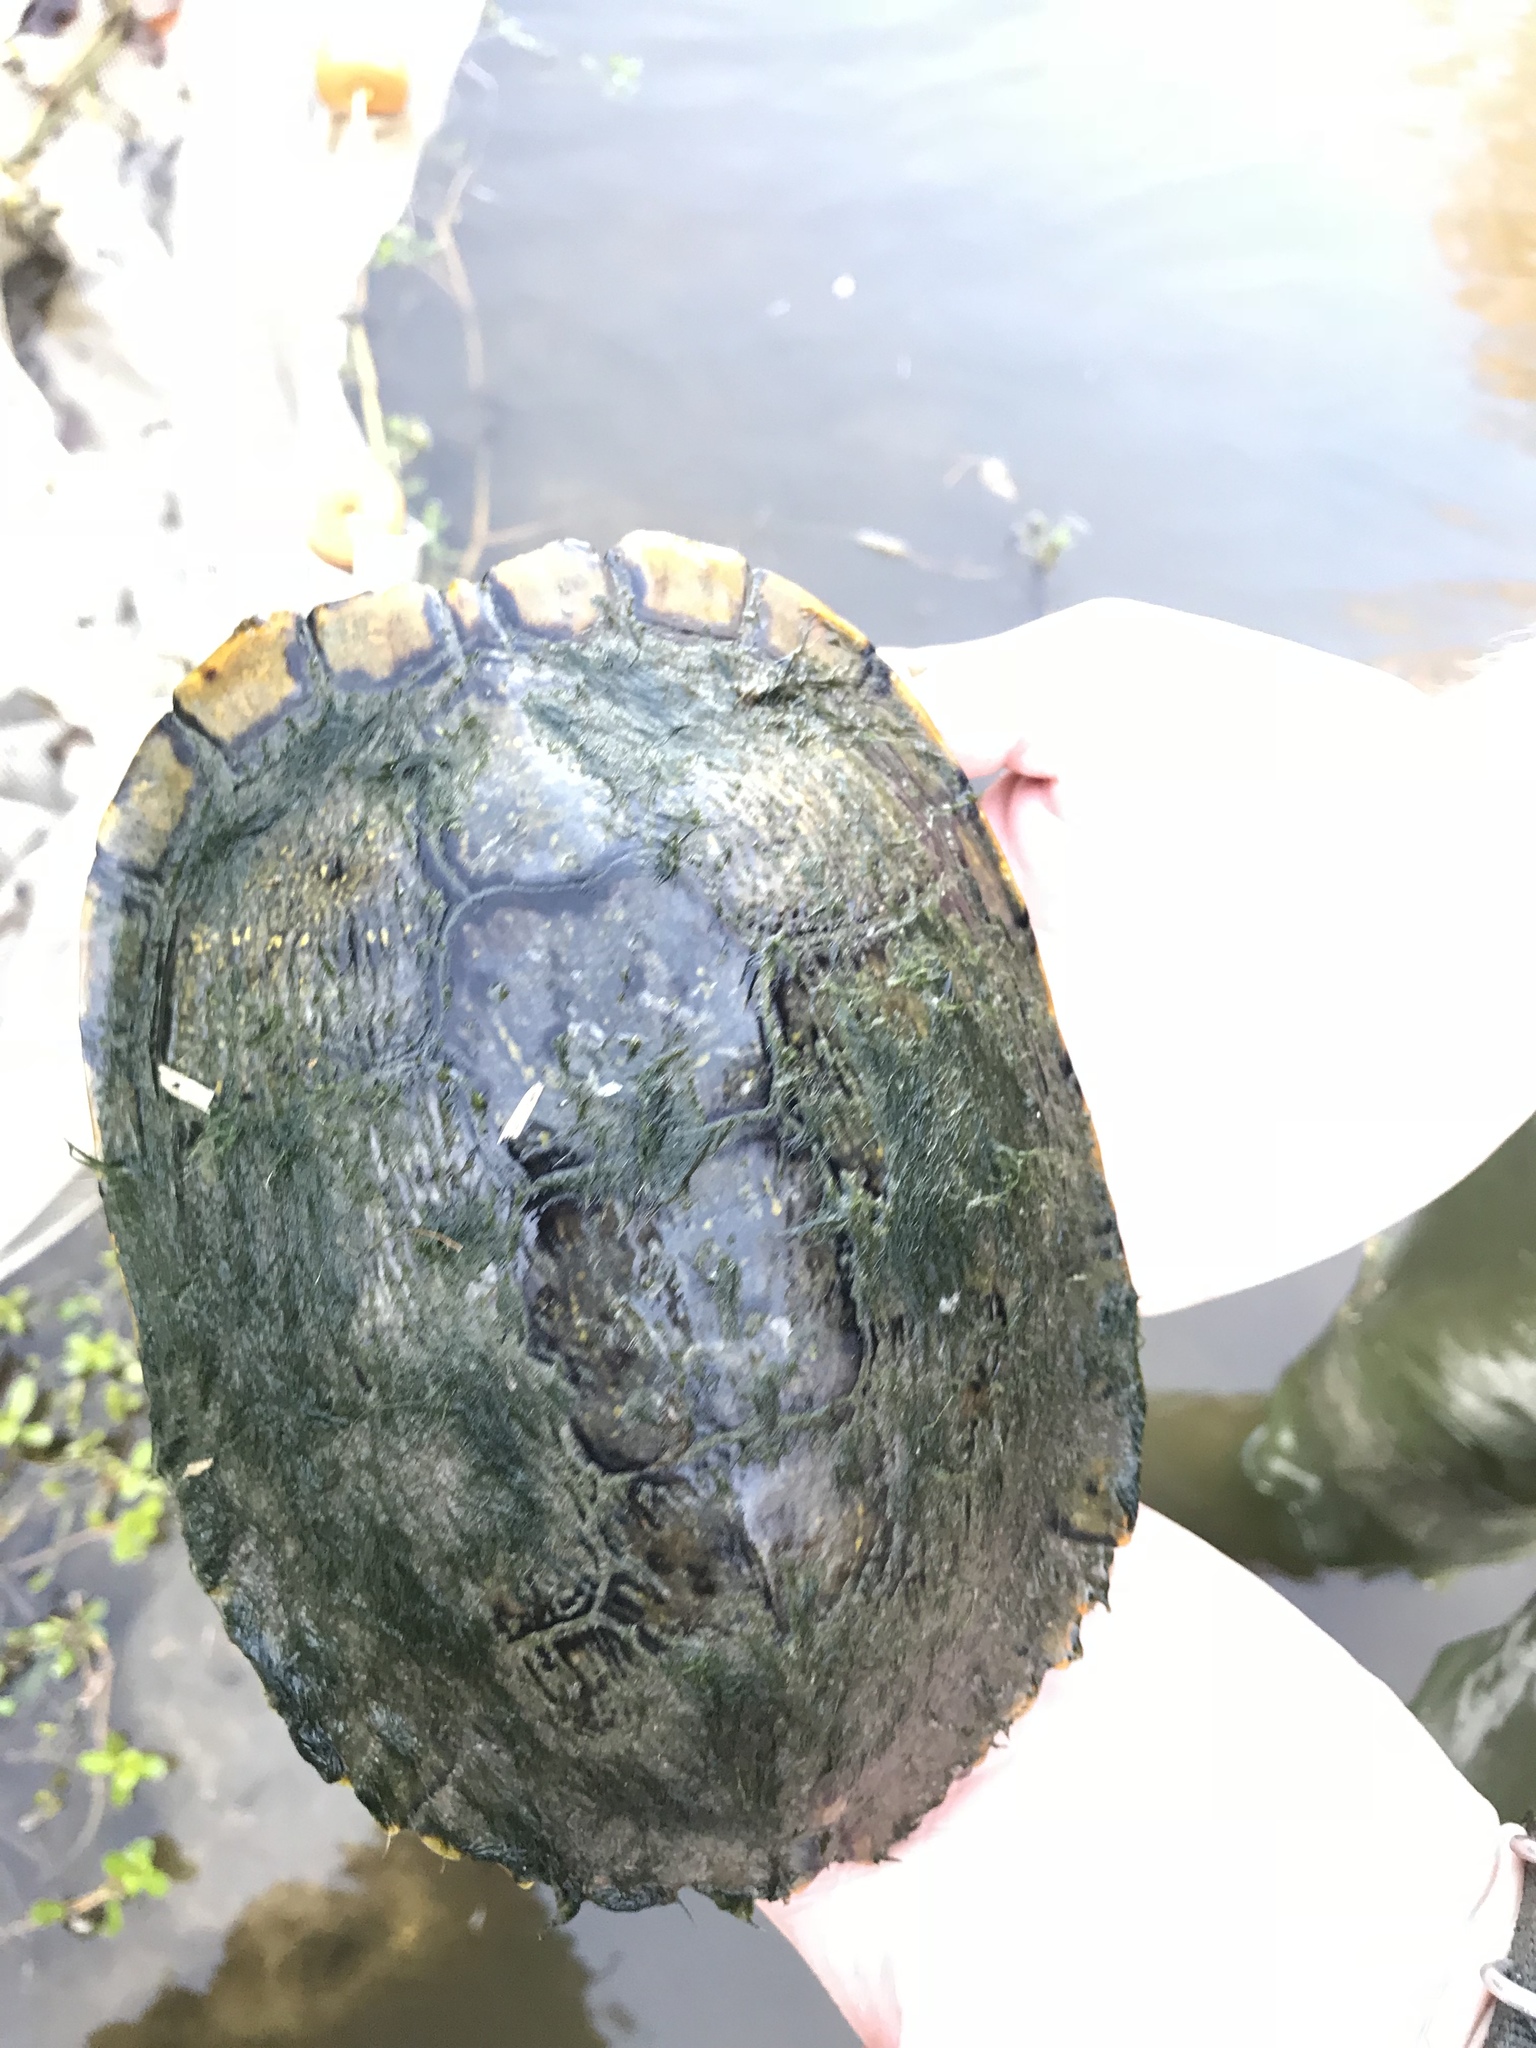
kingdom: Animalia
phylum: Chordata
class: Testudines
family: Emydidae
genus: Trachemys
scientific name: Trachemys scripta
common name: Slider
